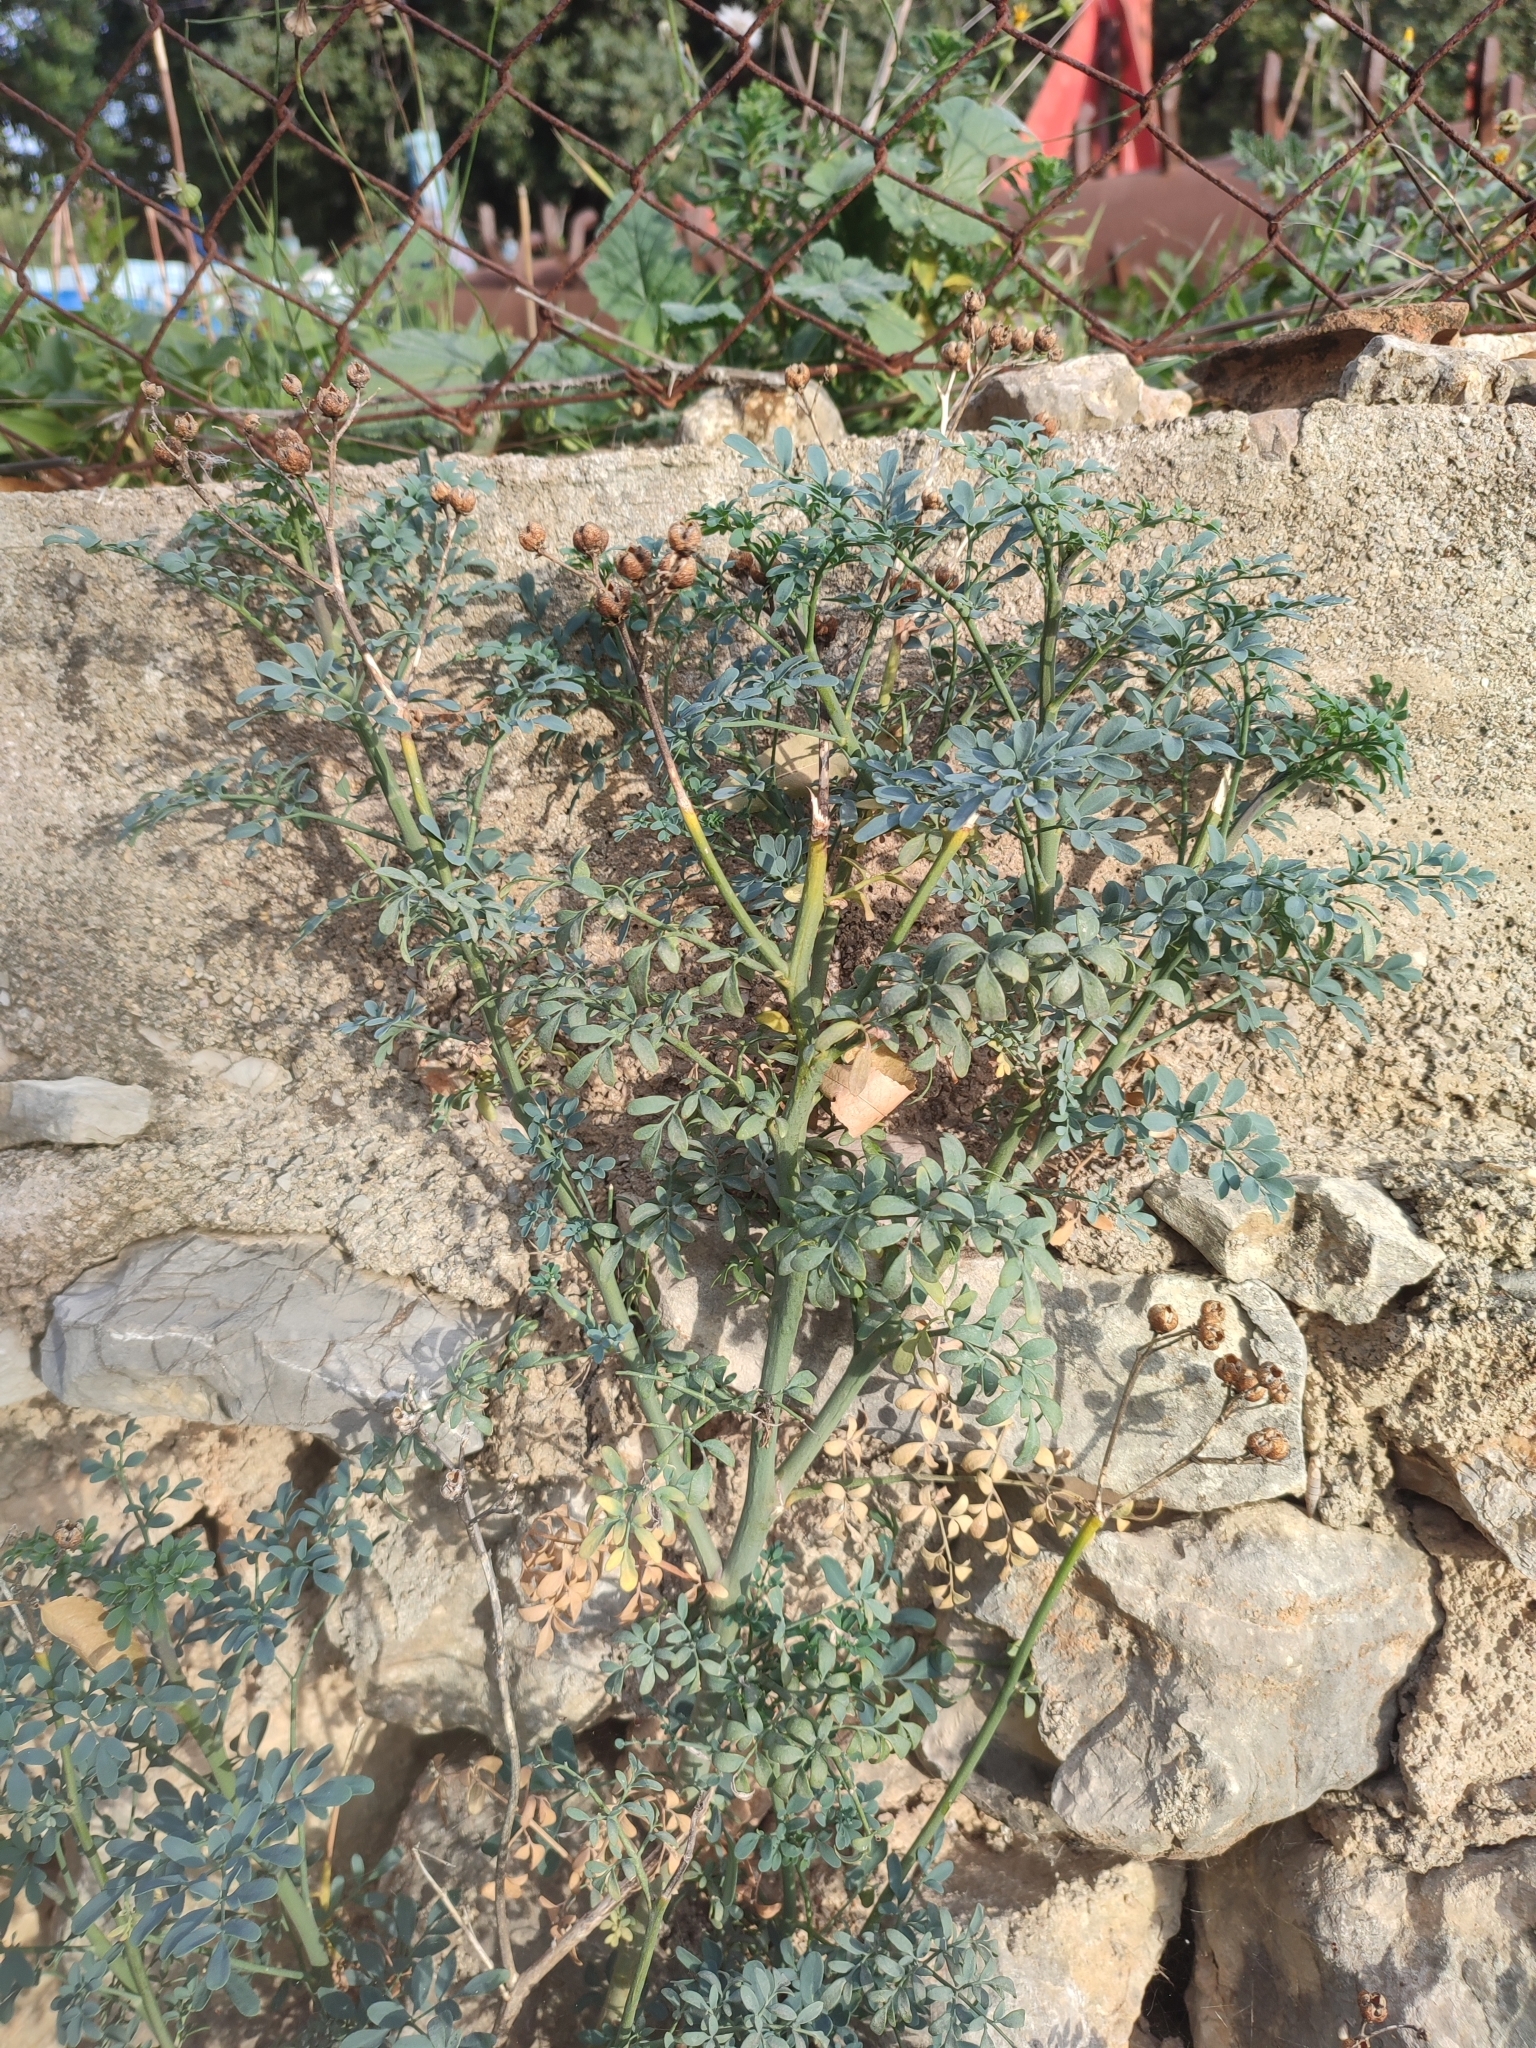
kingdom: Plantae
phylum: Tracheophyta
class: Magnoliopsida
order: Sapindales
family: Rutaceae
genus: Ruta
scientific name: Ruta chalepensis
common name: Fringed rue
